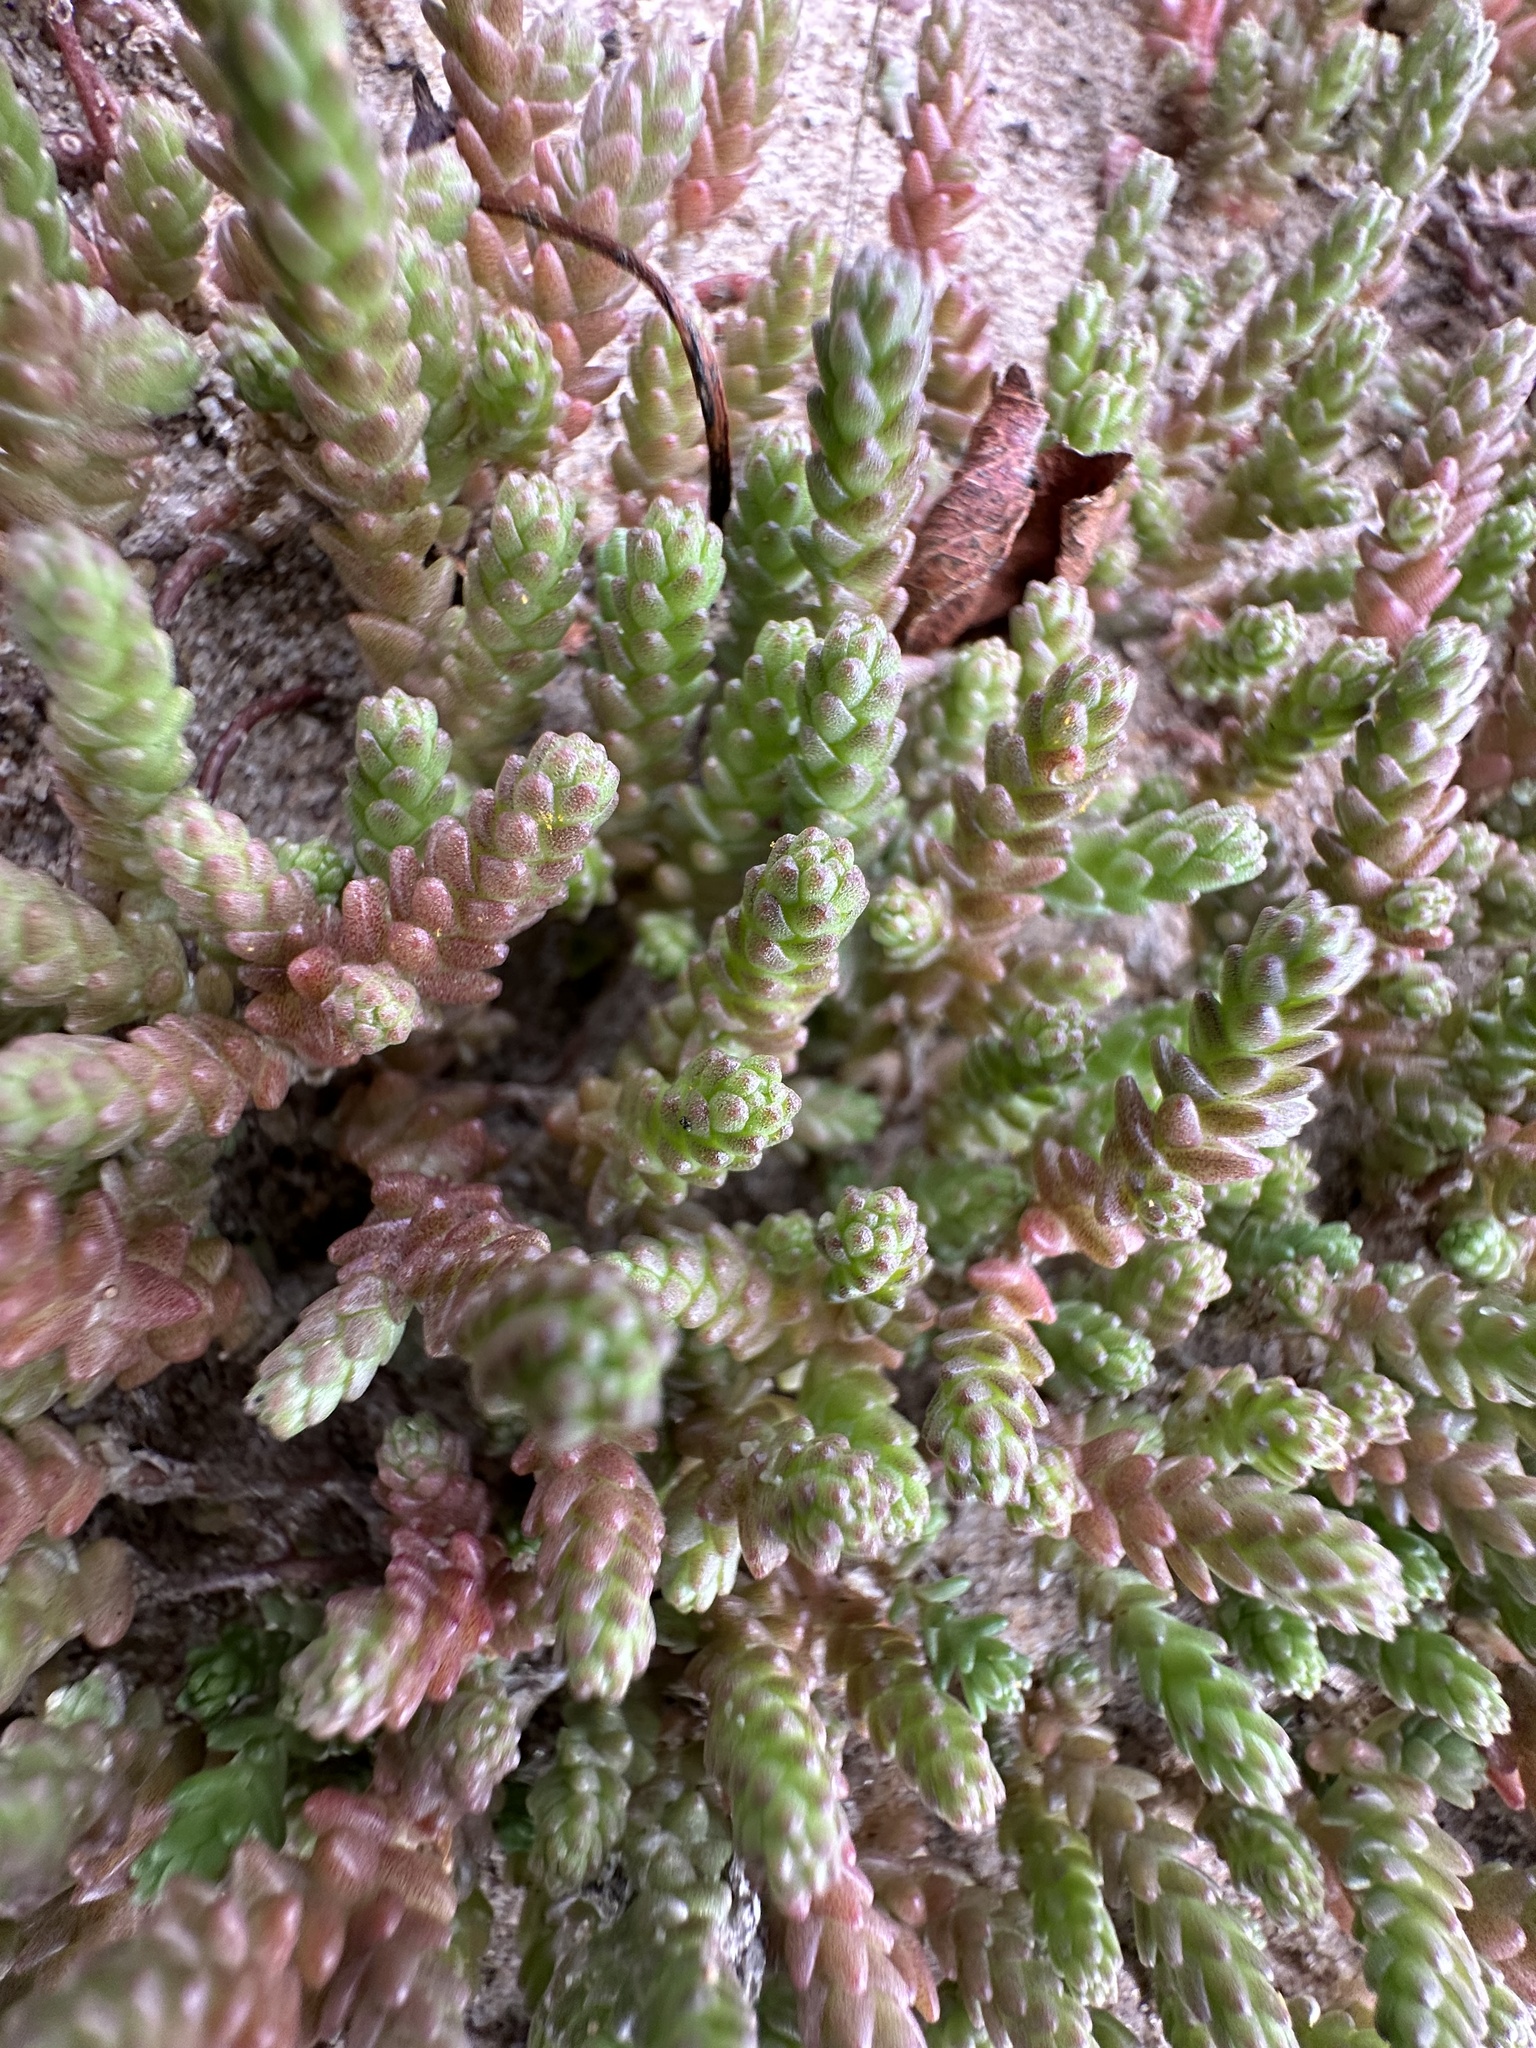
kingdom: Plantae
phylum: Tracheophyta
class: Magnoliopsida
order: Saxifragales
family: Crassulaceae
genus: Sedum
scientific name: Sedum acre
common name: Biting stonecrop
